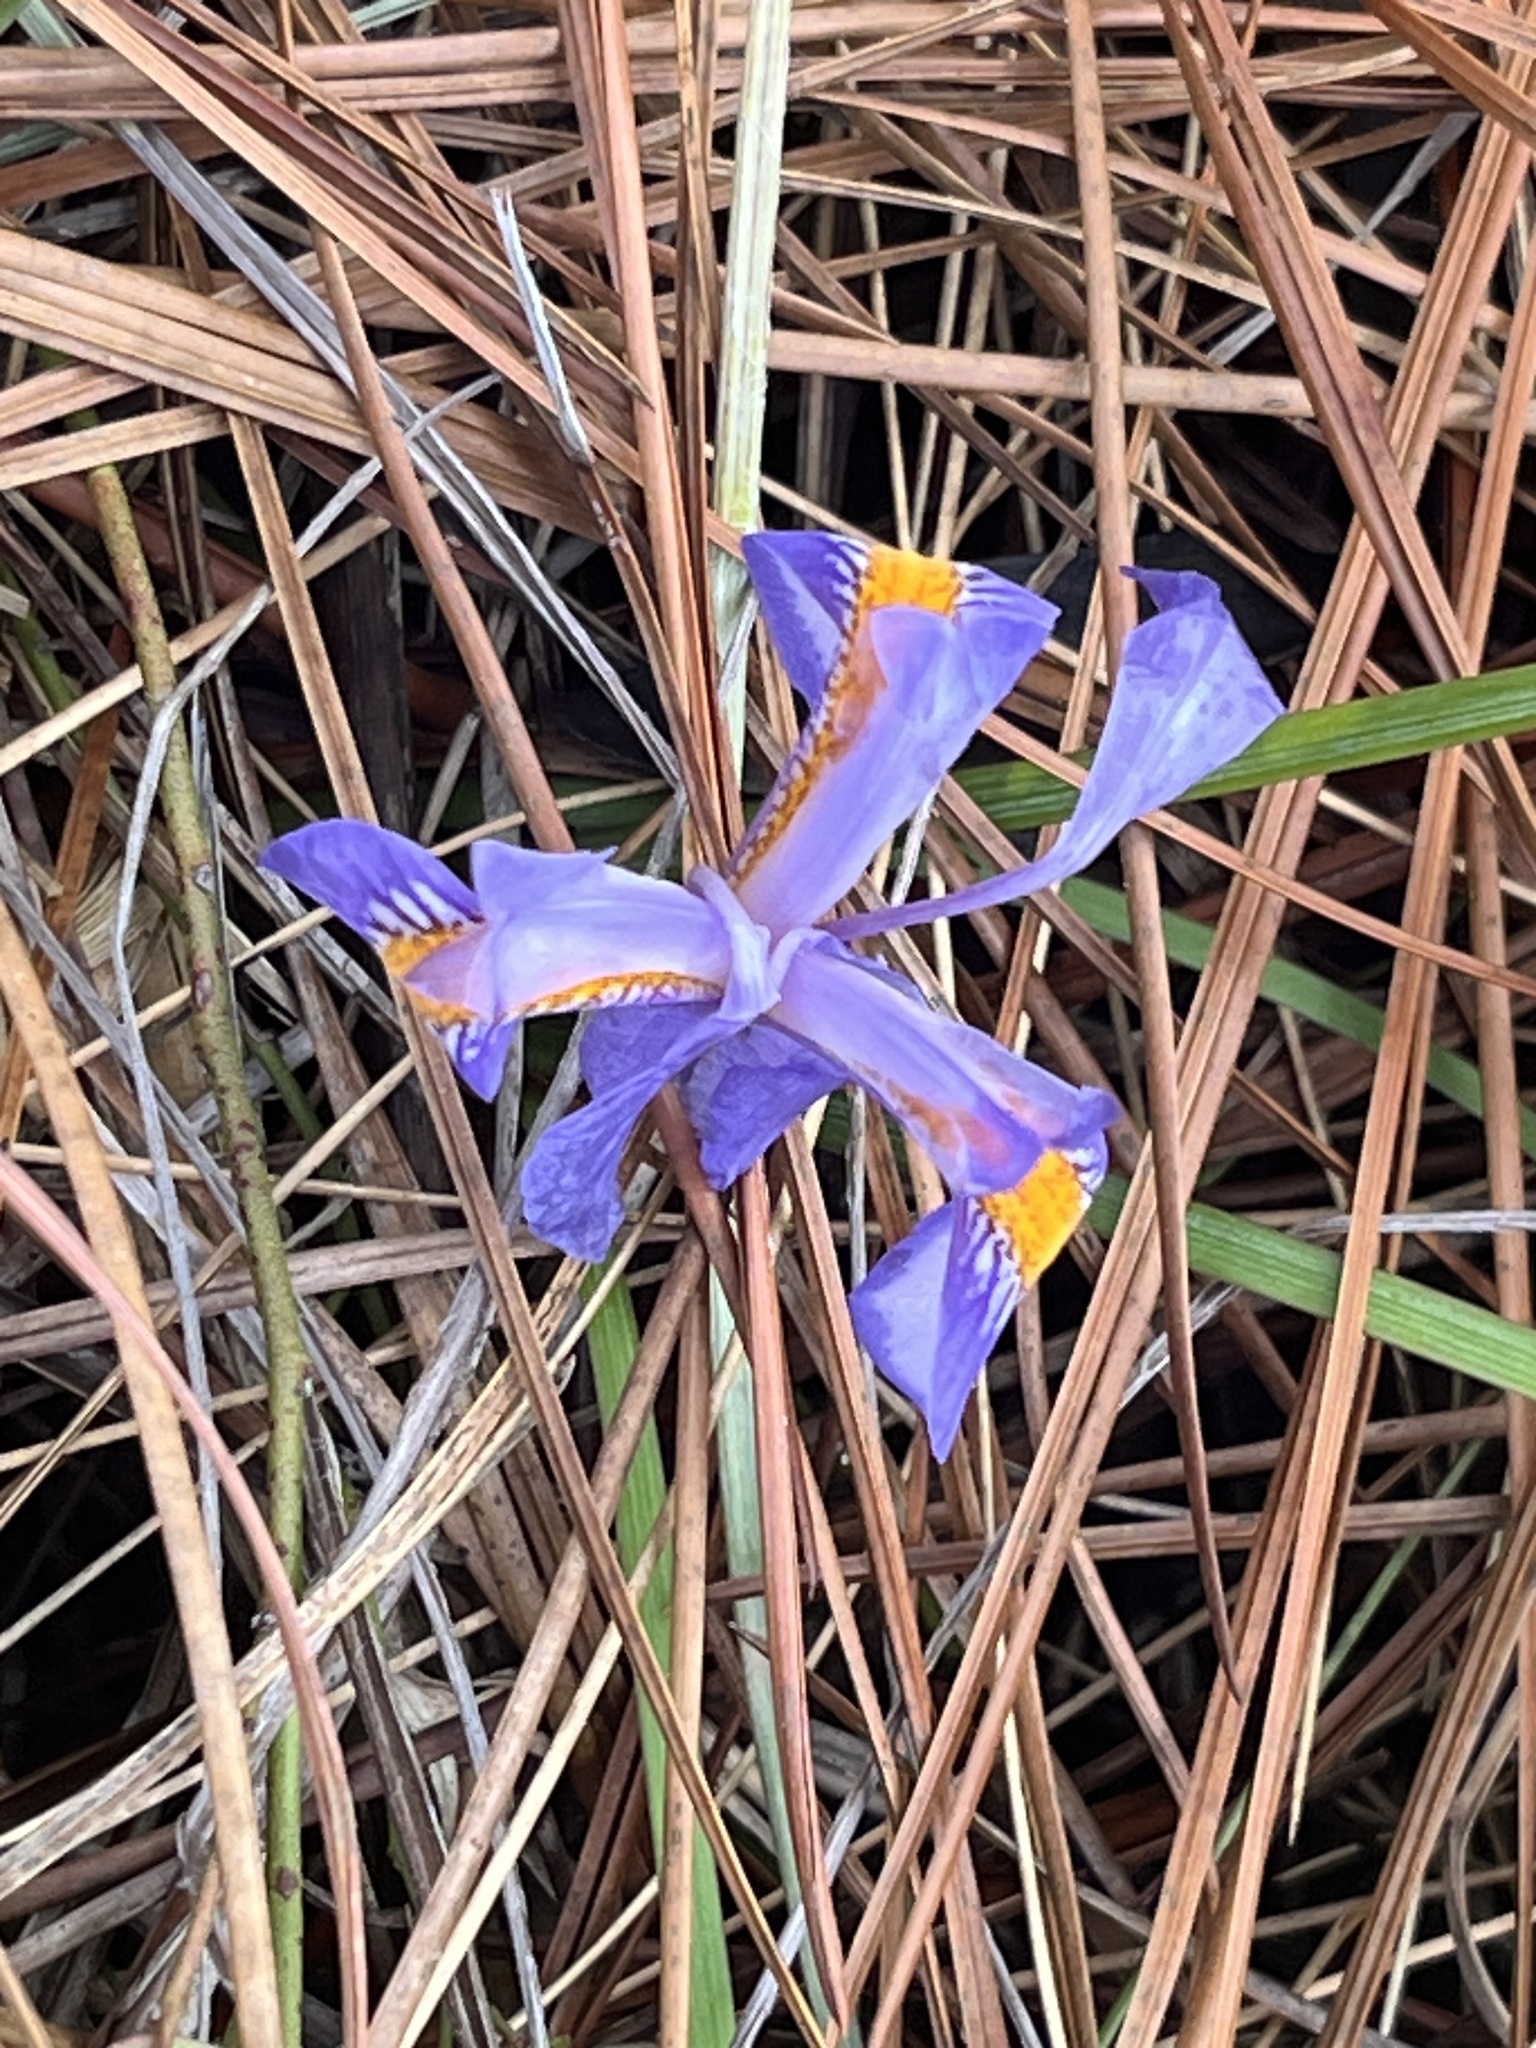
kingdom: Plantae
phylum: Tracheophyta
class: Liliopsida
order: Asparagales
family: Iridaceae
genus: Iris
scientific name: Iris verna
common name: Dwarf iris
